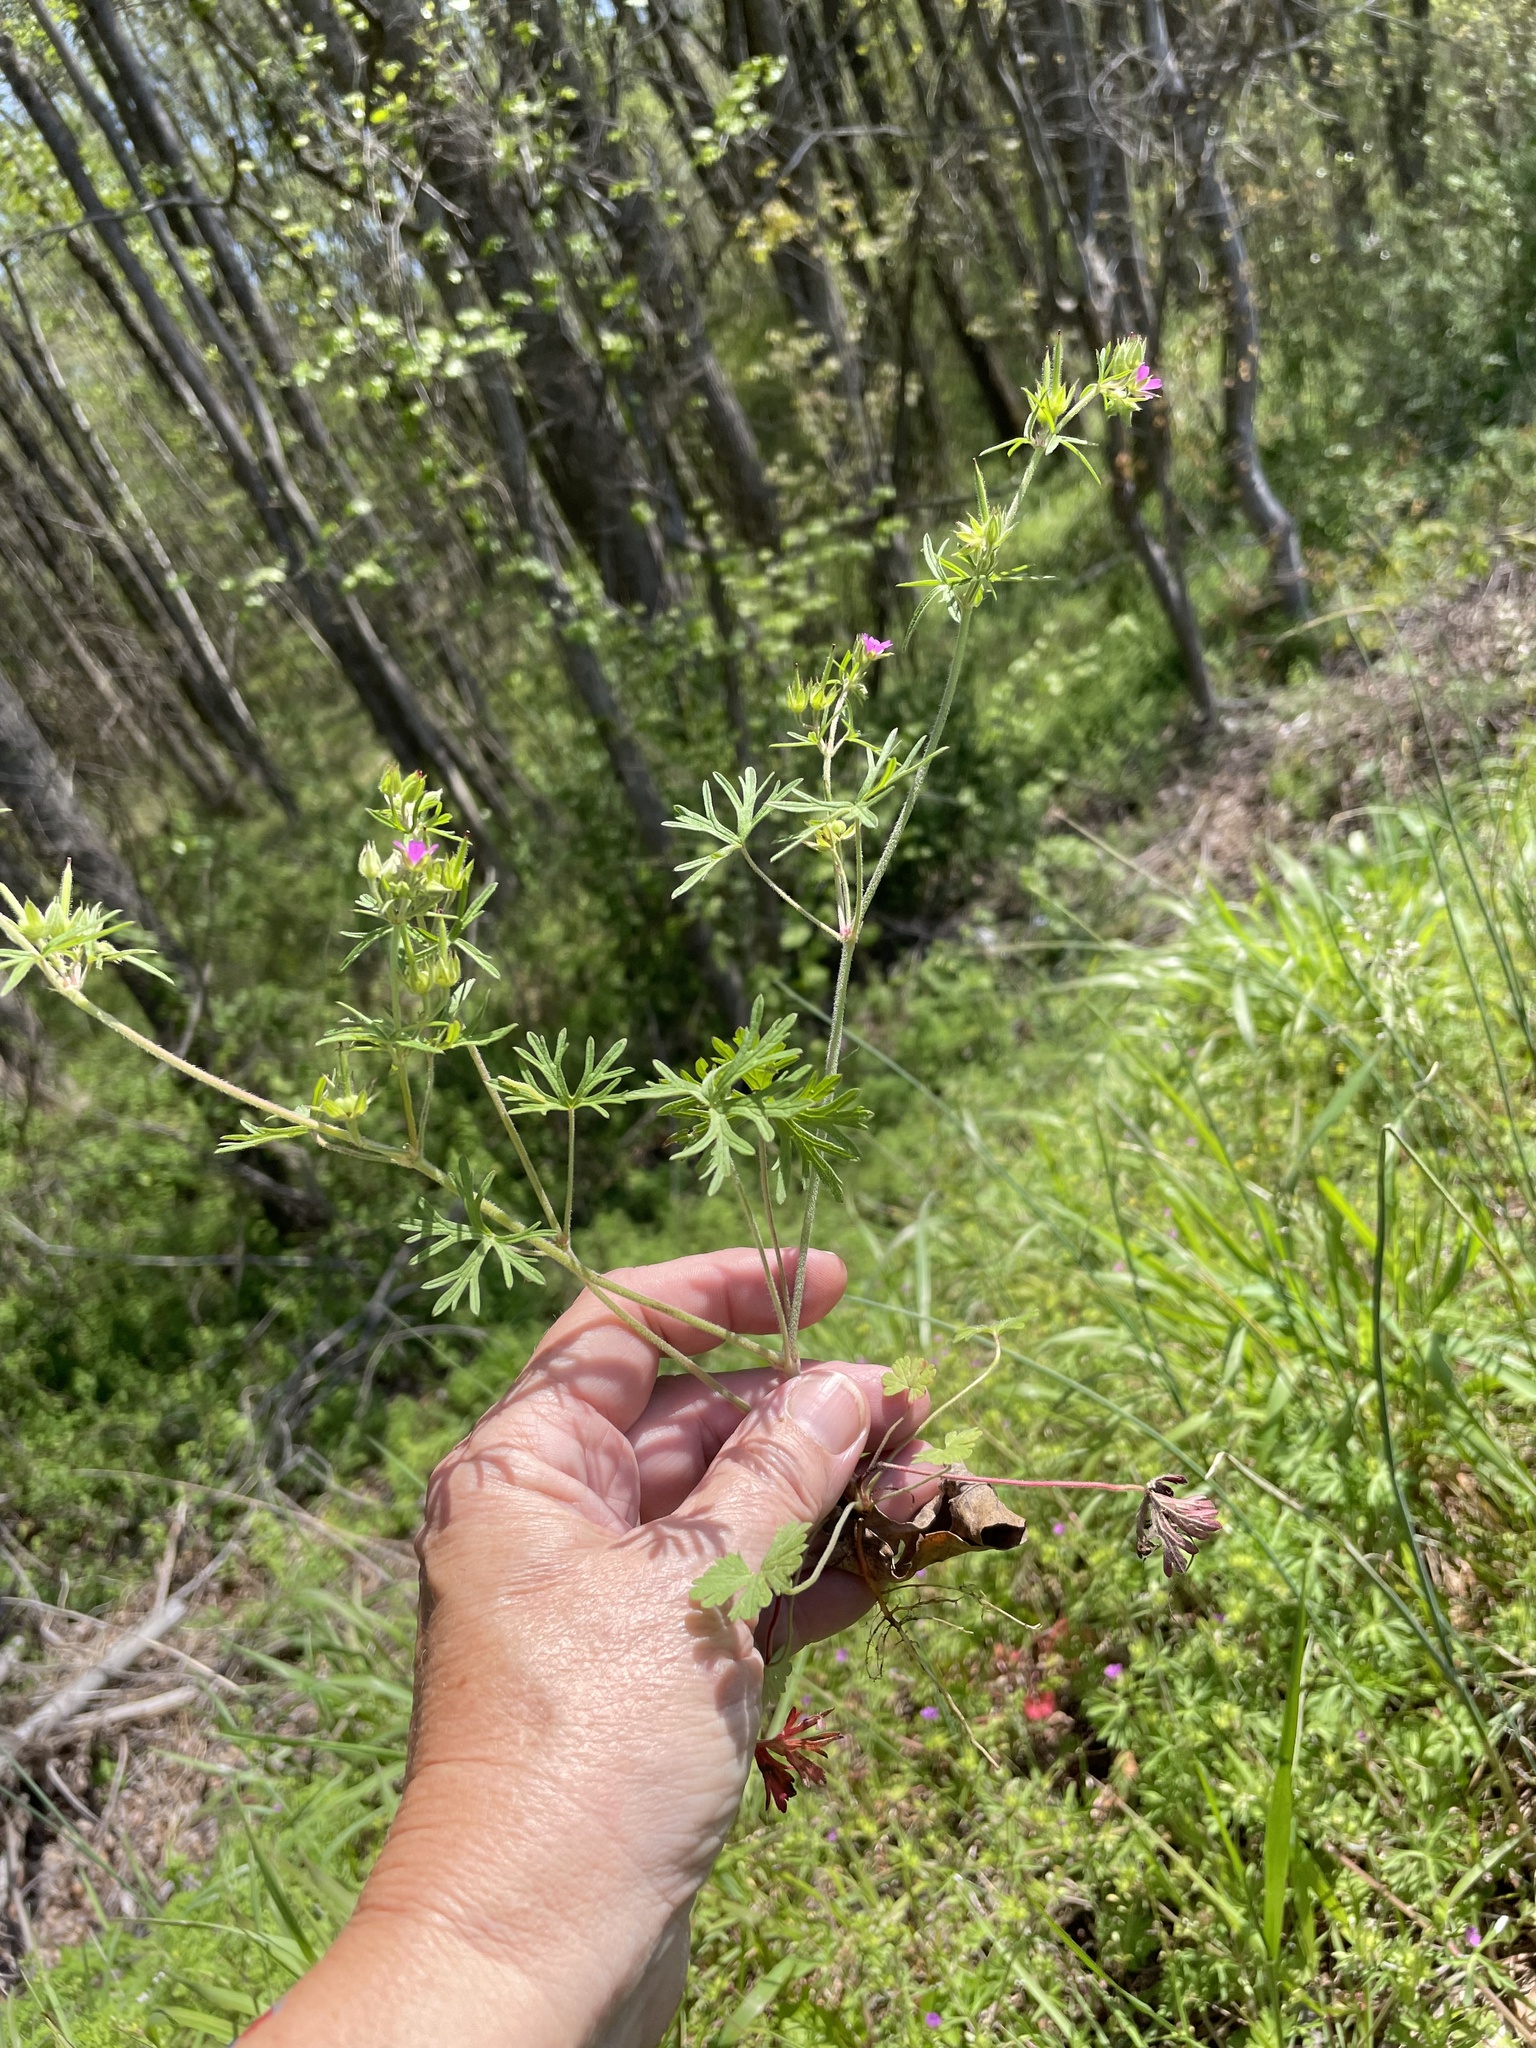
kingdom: Plantae
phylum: Tracheophyta
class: Magnoliopsida
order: Geraniales
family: Geraniaceae
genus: Geranium
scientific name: Geranium dissectum
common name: Cut-leaved crane's-bill
